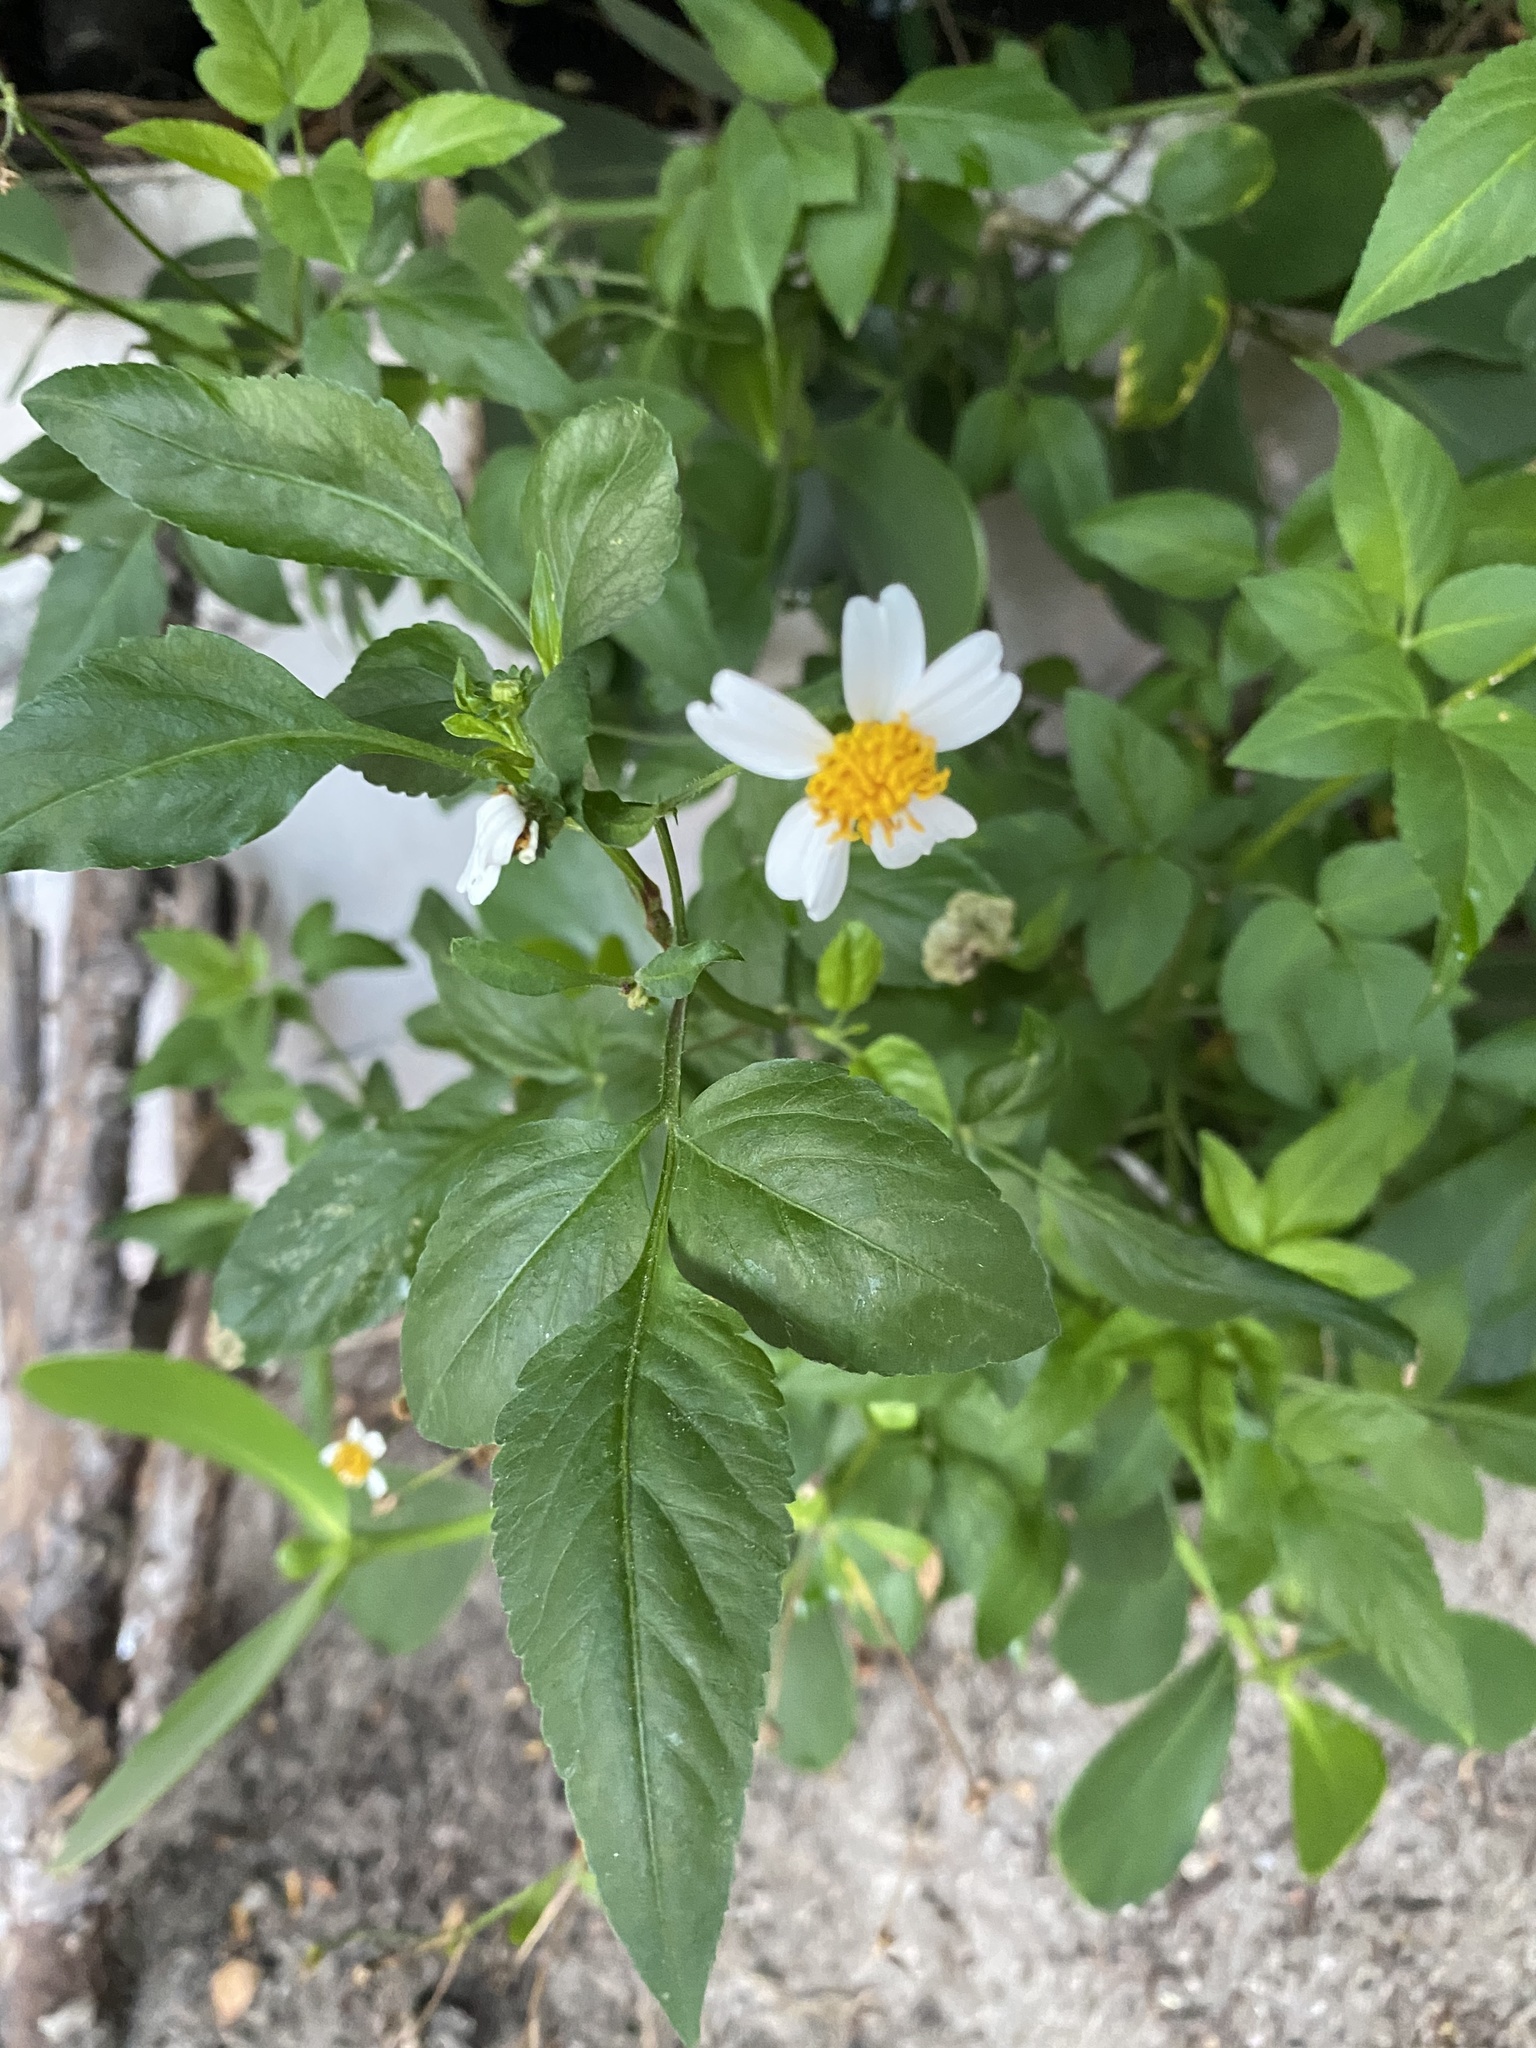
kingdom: Plantae
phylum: Tracheophyta
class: Magnoliopsida
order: Asterales
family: Asteraceae
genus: Bidens
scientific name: Bidens alba
